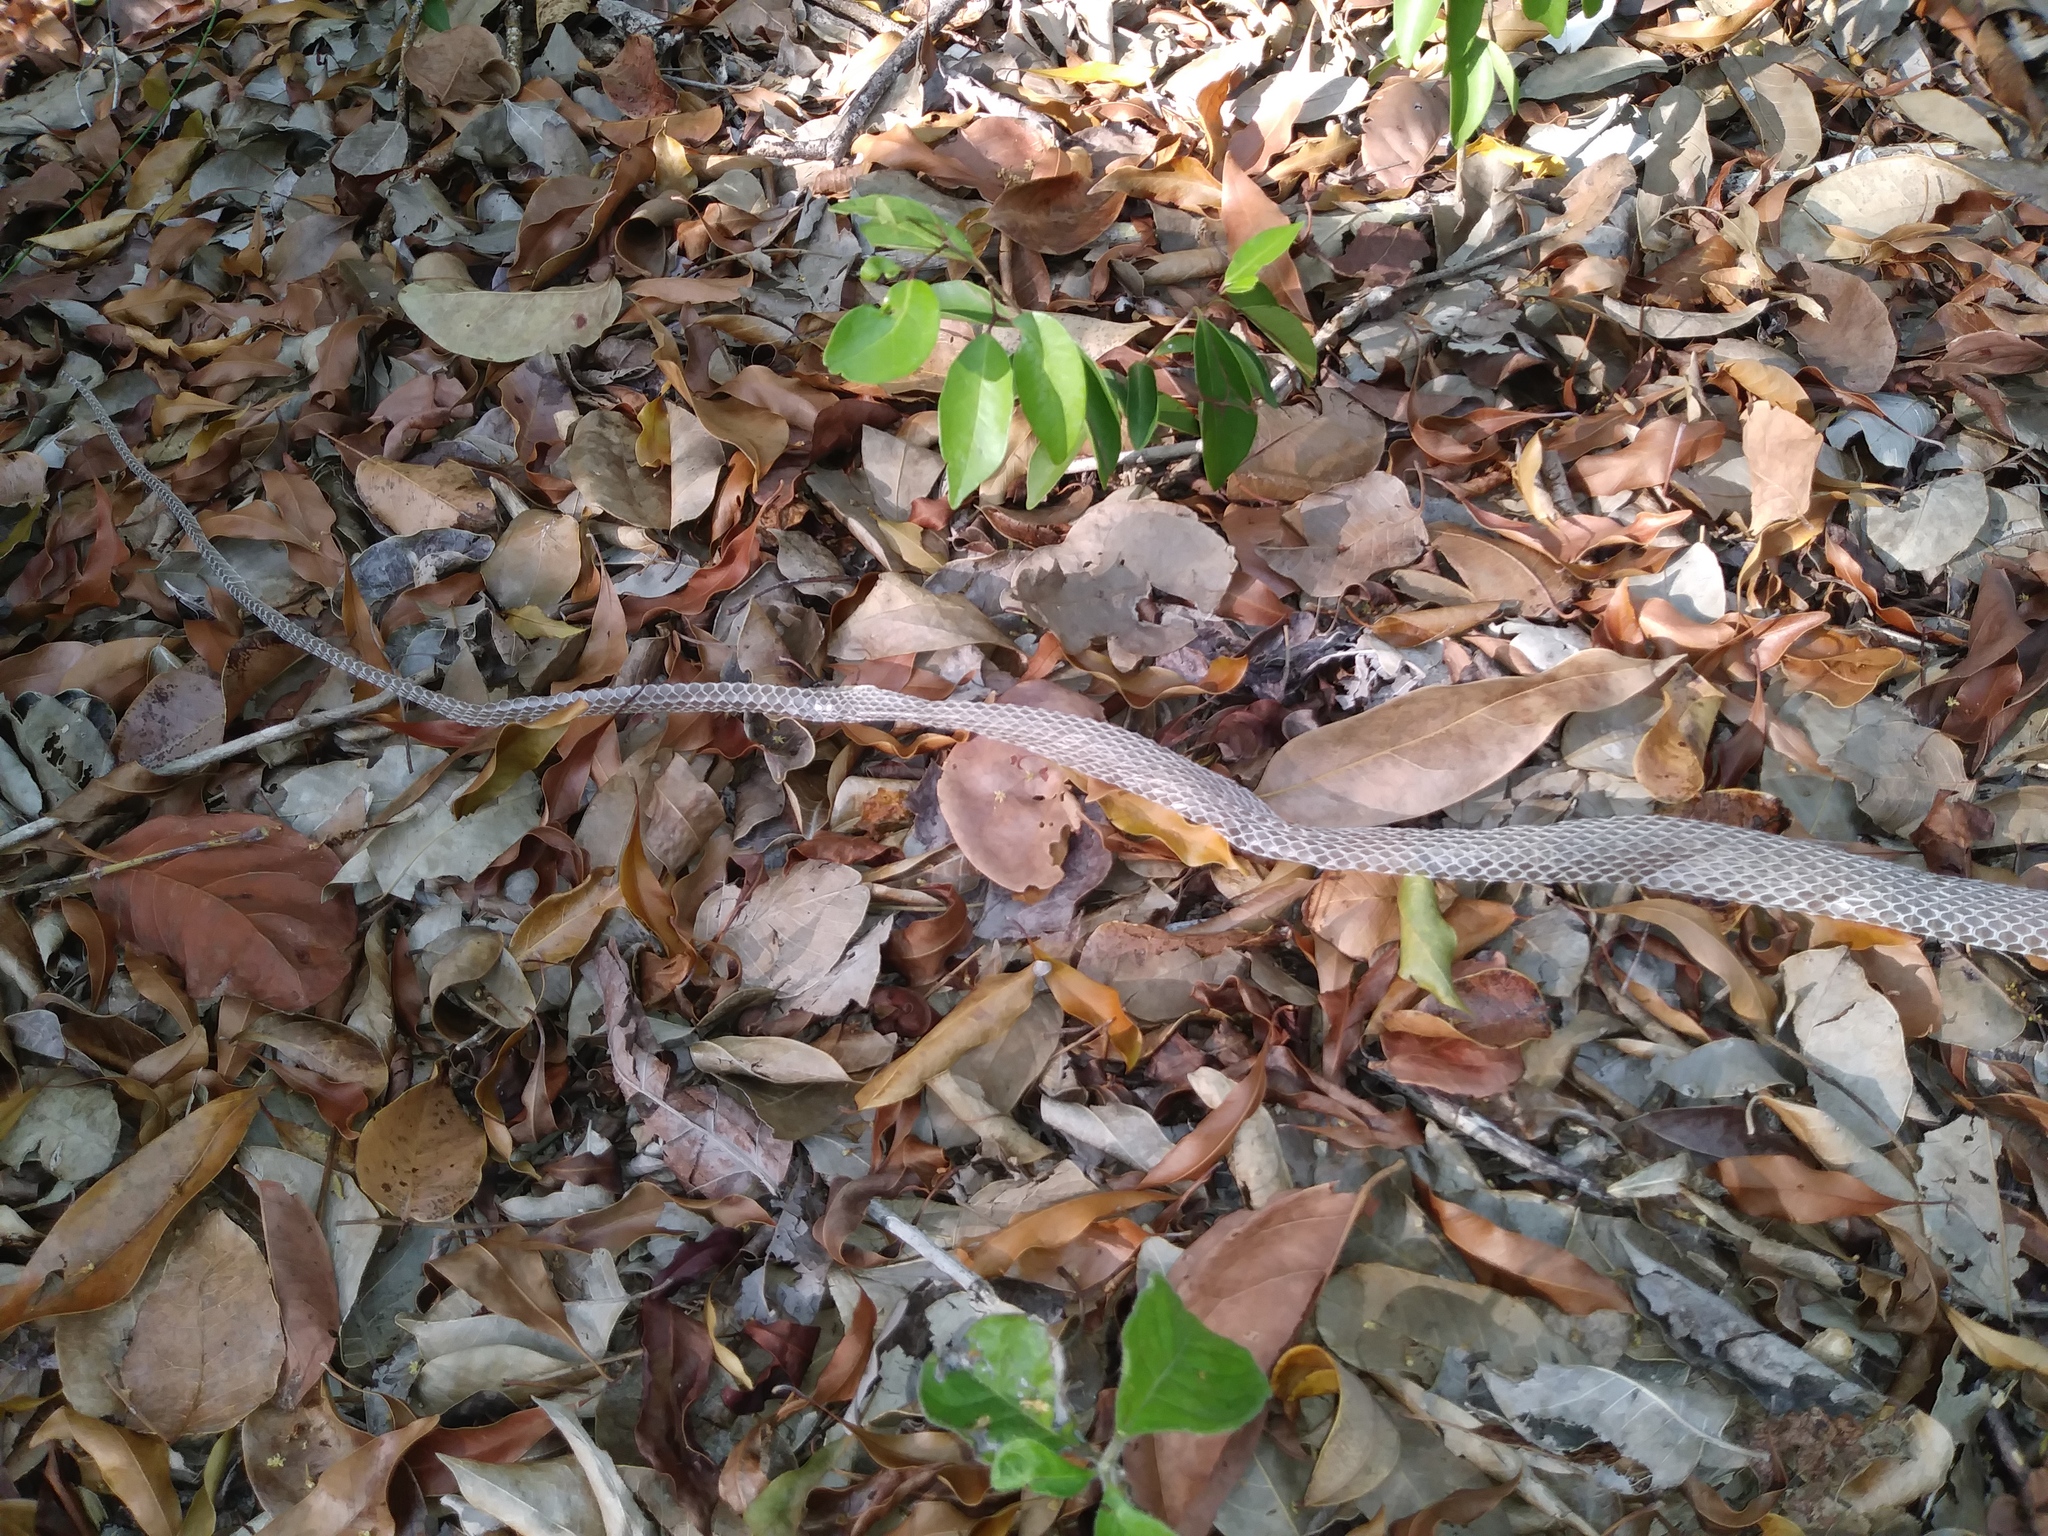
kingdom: Animalia
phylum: Chordata
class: Squamata
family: Colubridae
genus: Coluber
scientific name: Coluber constrictor
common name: Eastern racer
